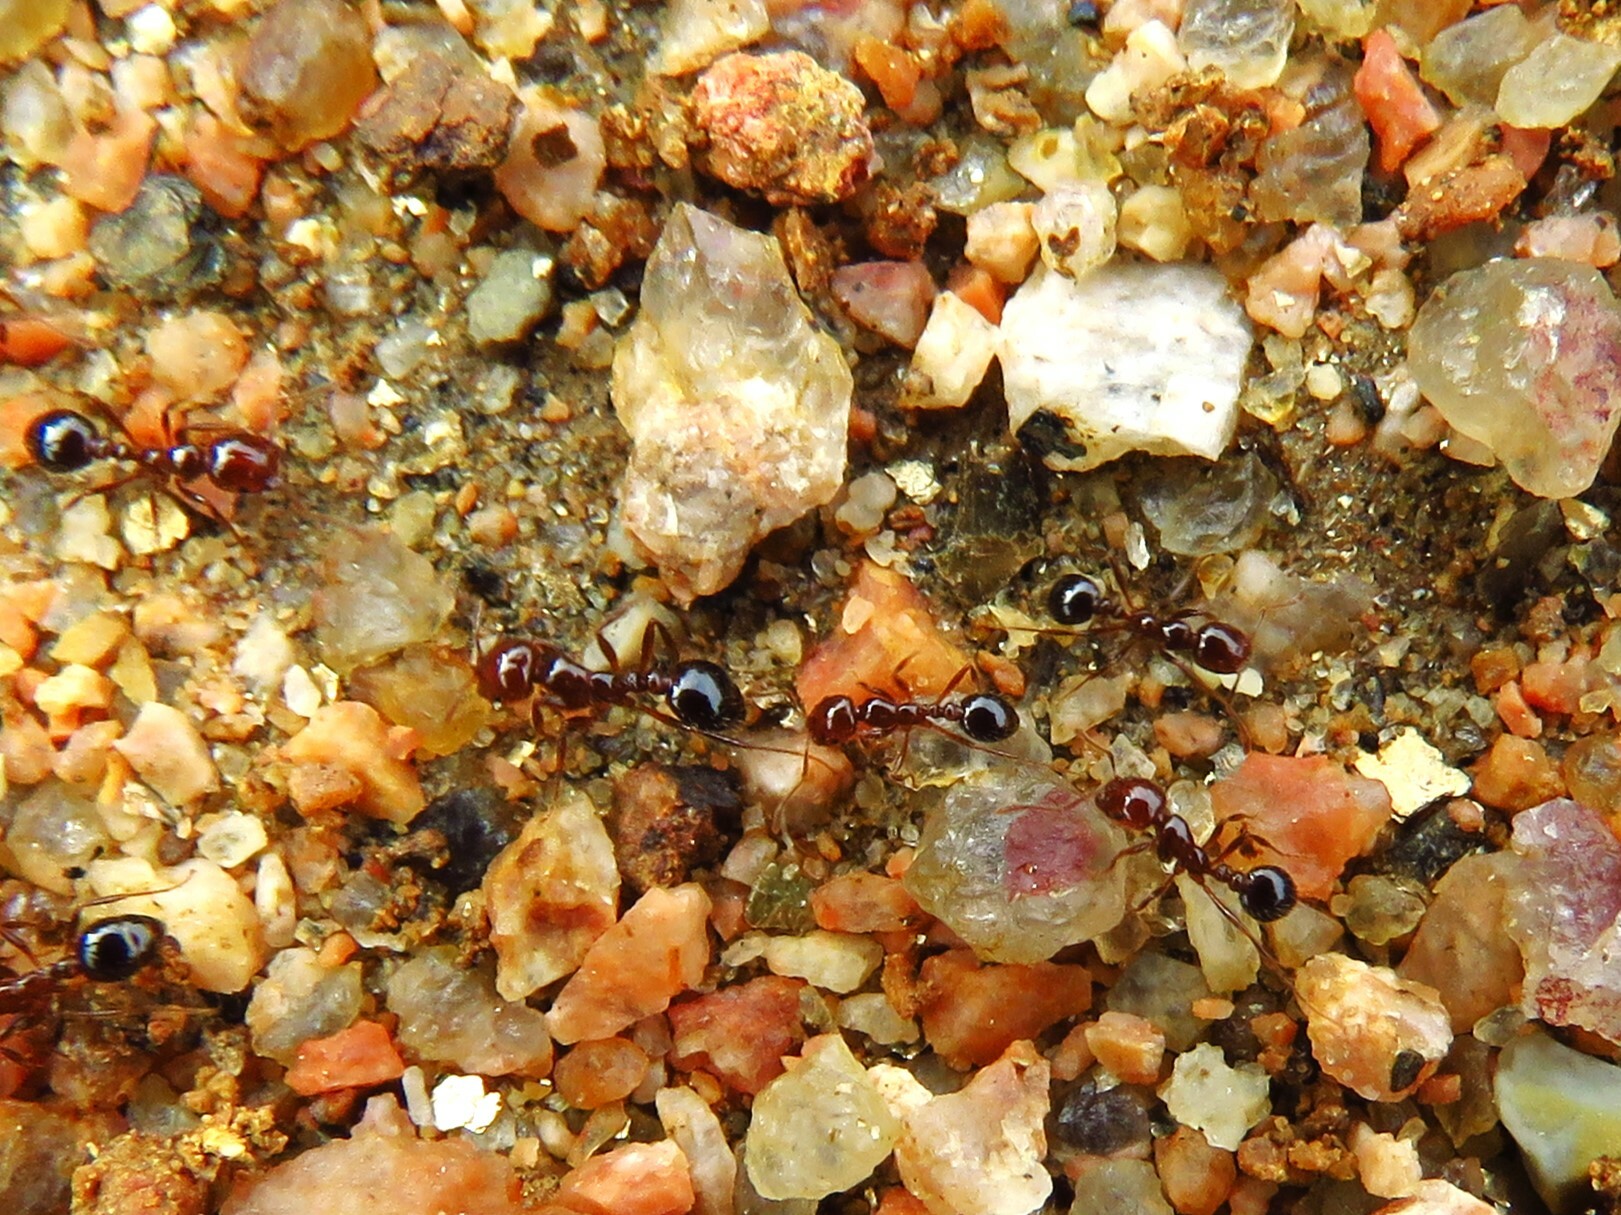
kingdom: Animalia
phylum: Arthropoda
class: Insecta
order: Hymenoptera
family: Formicidae
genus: Solenopsis
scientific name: Solenopsis invicta
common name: Red imported fire ant
